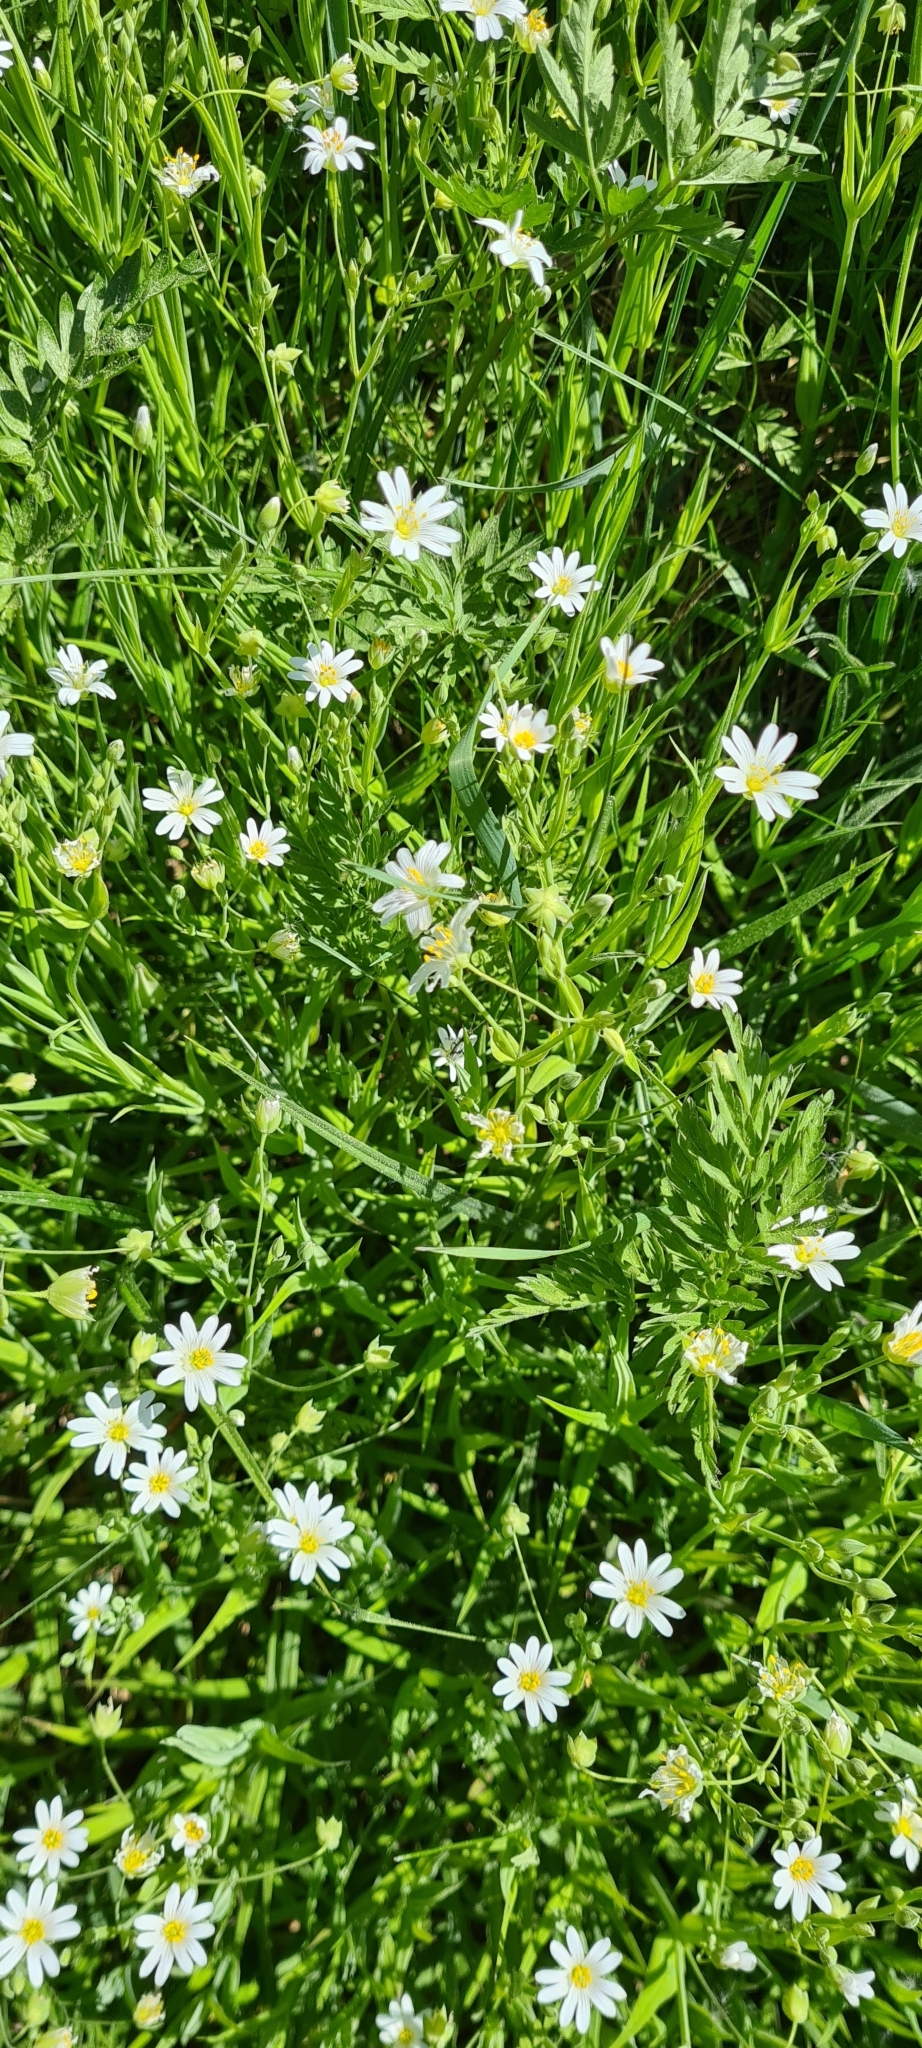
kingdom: Plantae
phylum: Tracheophyta
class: Magnoliopsida
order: Caryophyllales
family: Caryophyllaceae
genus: Rabelera
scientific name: Rabelera holostea
